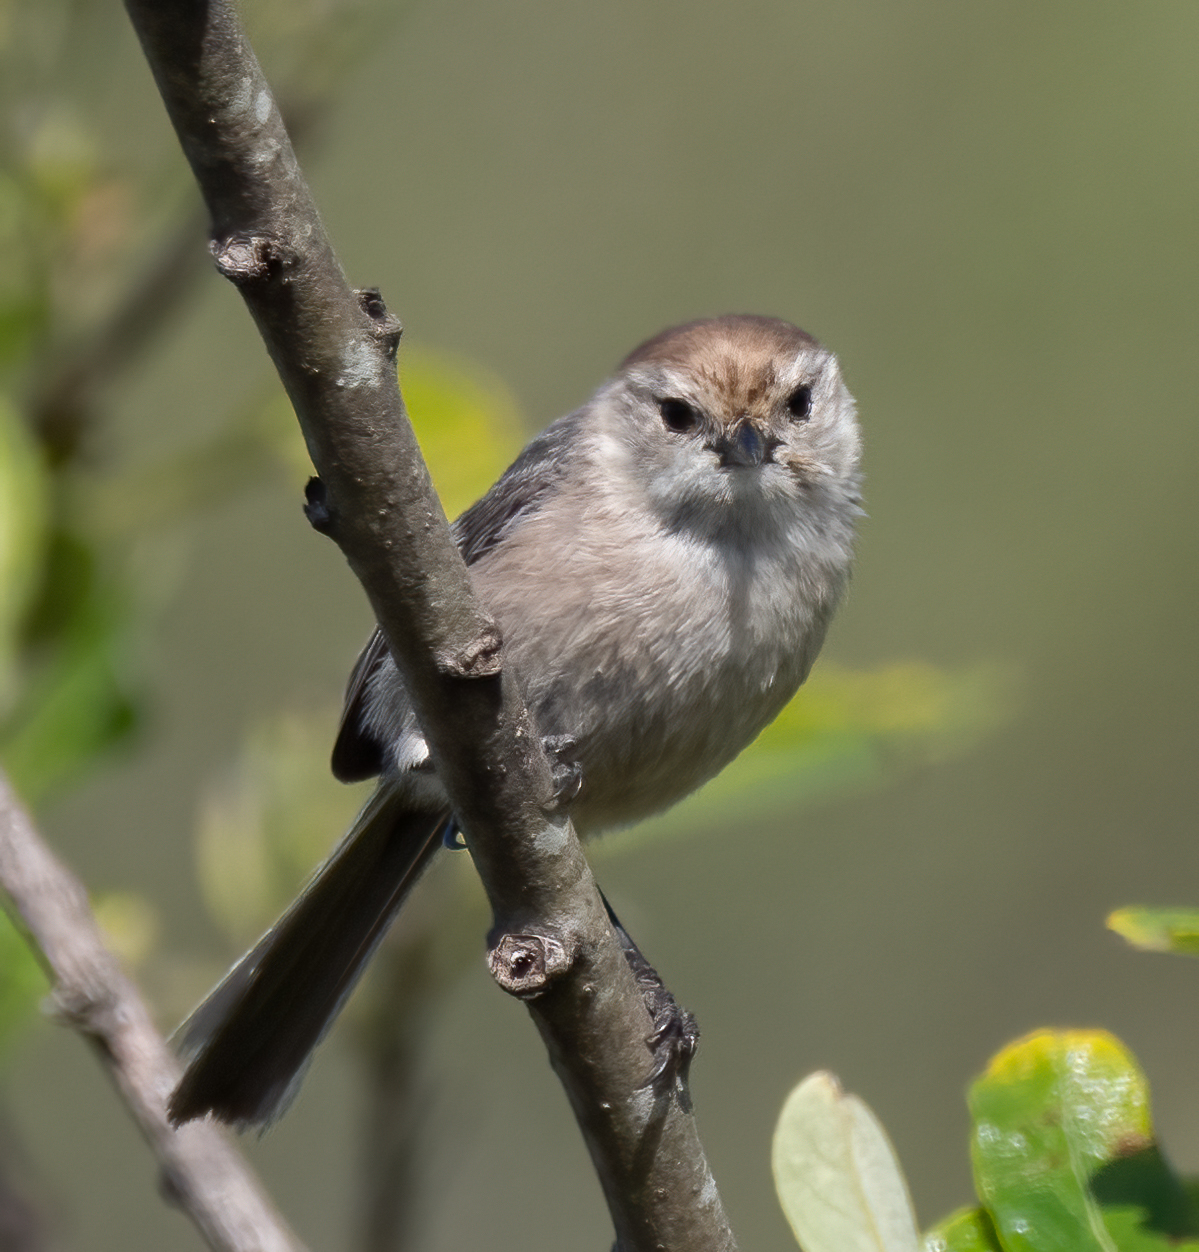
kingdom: Animalia
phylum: Chordata
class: Aves
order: Passeriformes
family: Aegithalidae
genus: Psaltriparus
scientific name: Psaltriparus minimus
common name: American bushtit
